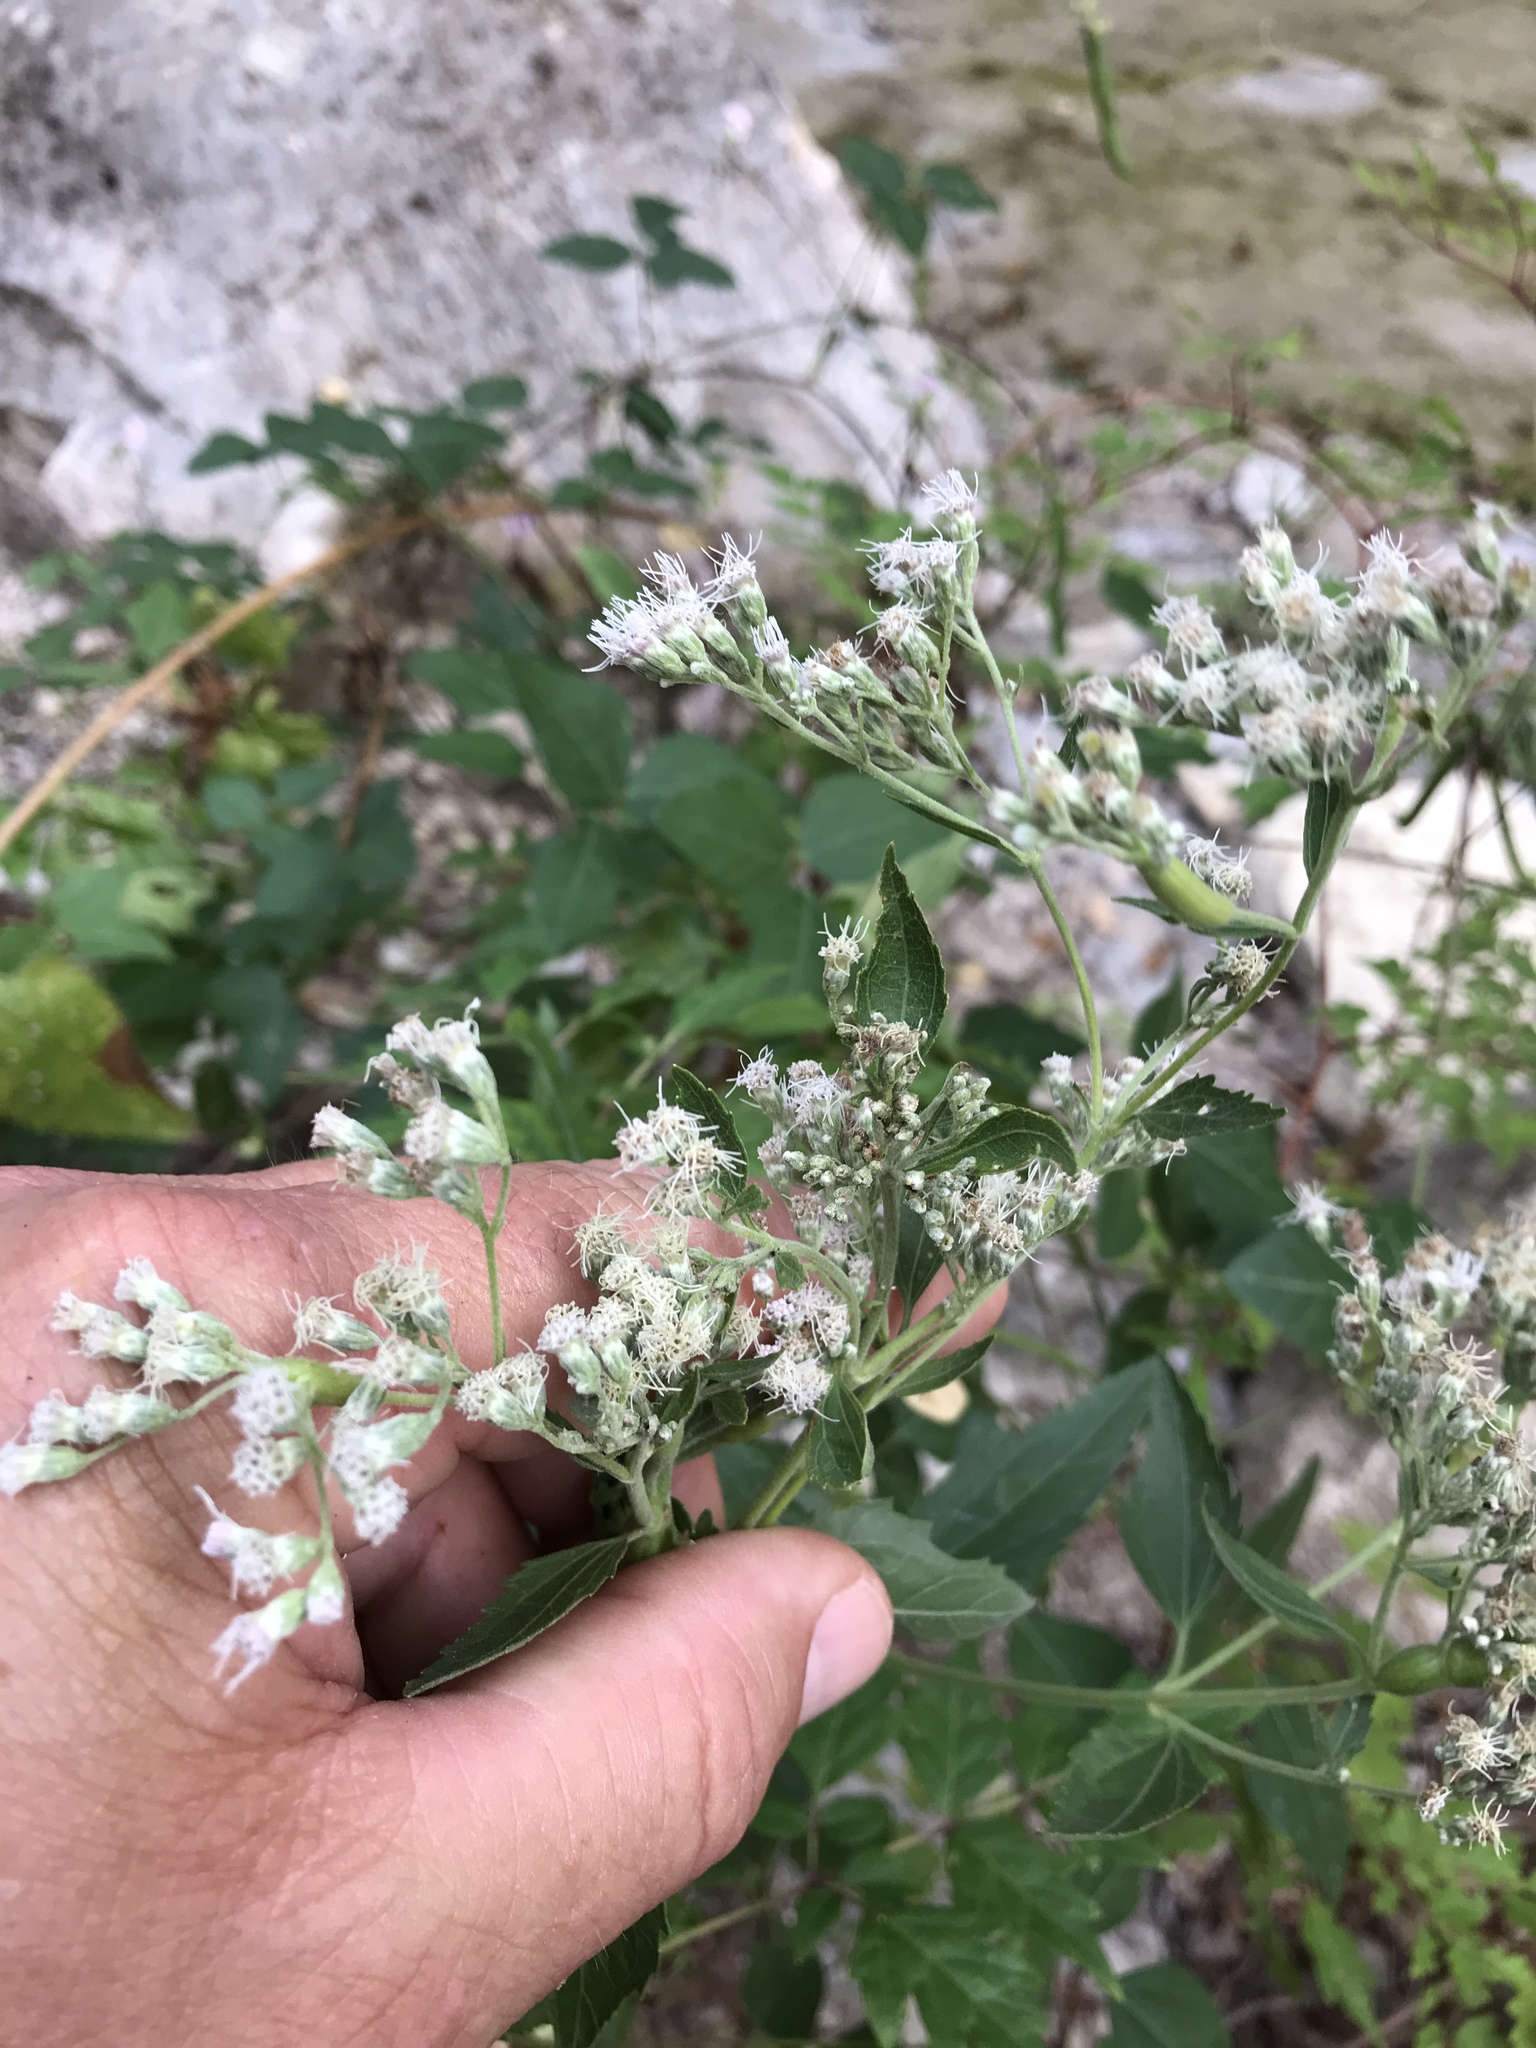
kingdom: Plantae
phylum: Tracheophyta
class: Magnoliopsida
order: Asterales
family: Asteraceae
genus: Eupatorium
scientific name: Eupatorium serotinum
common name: Late boneset
